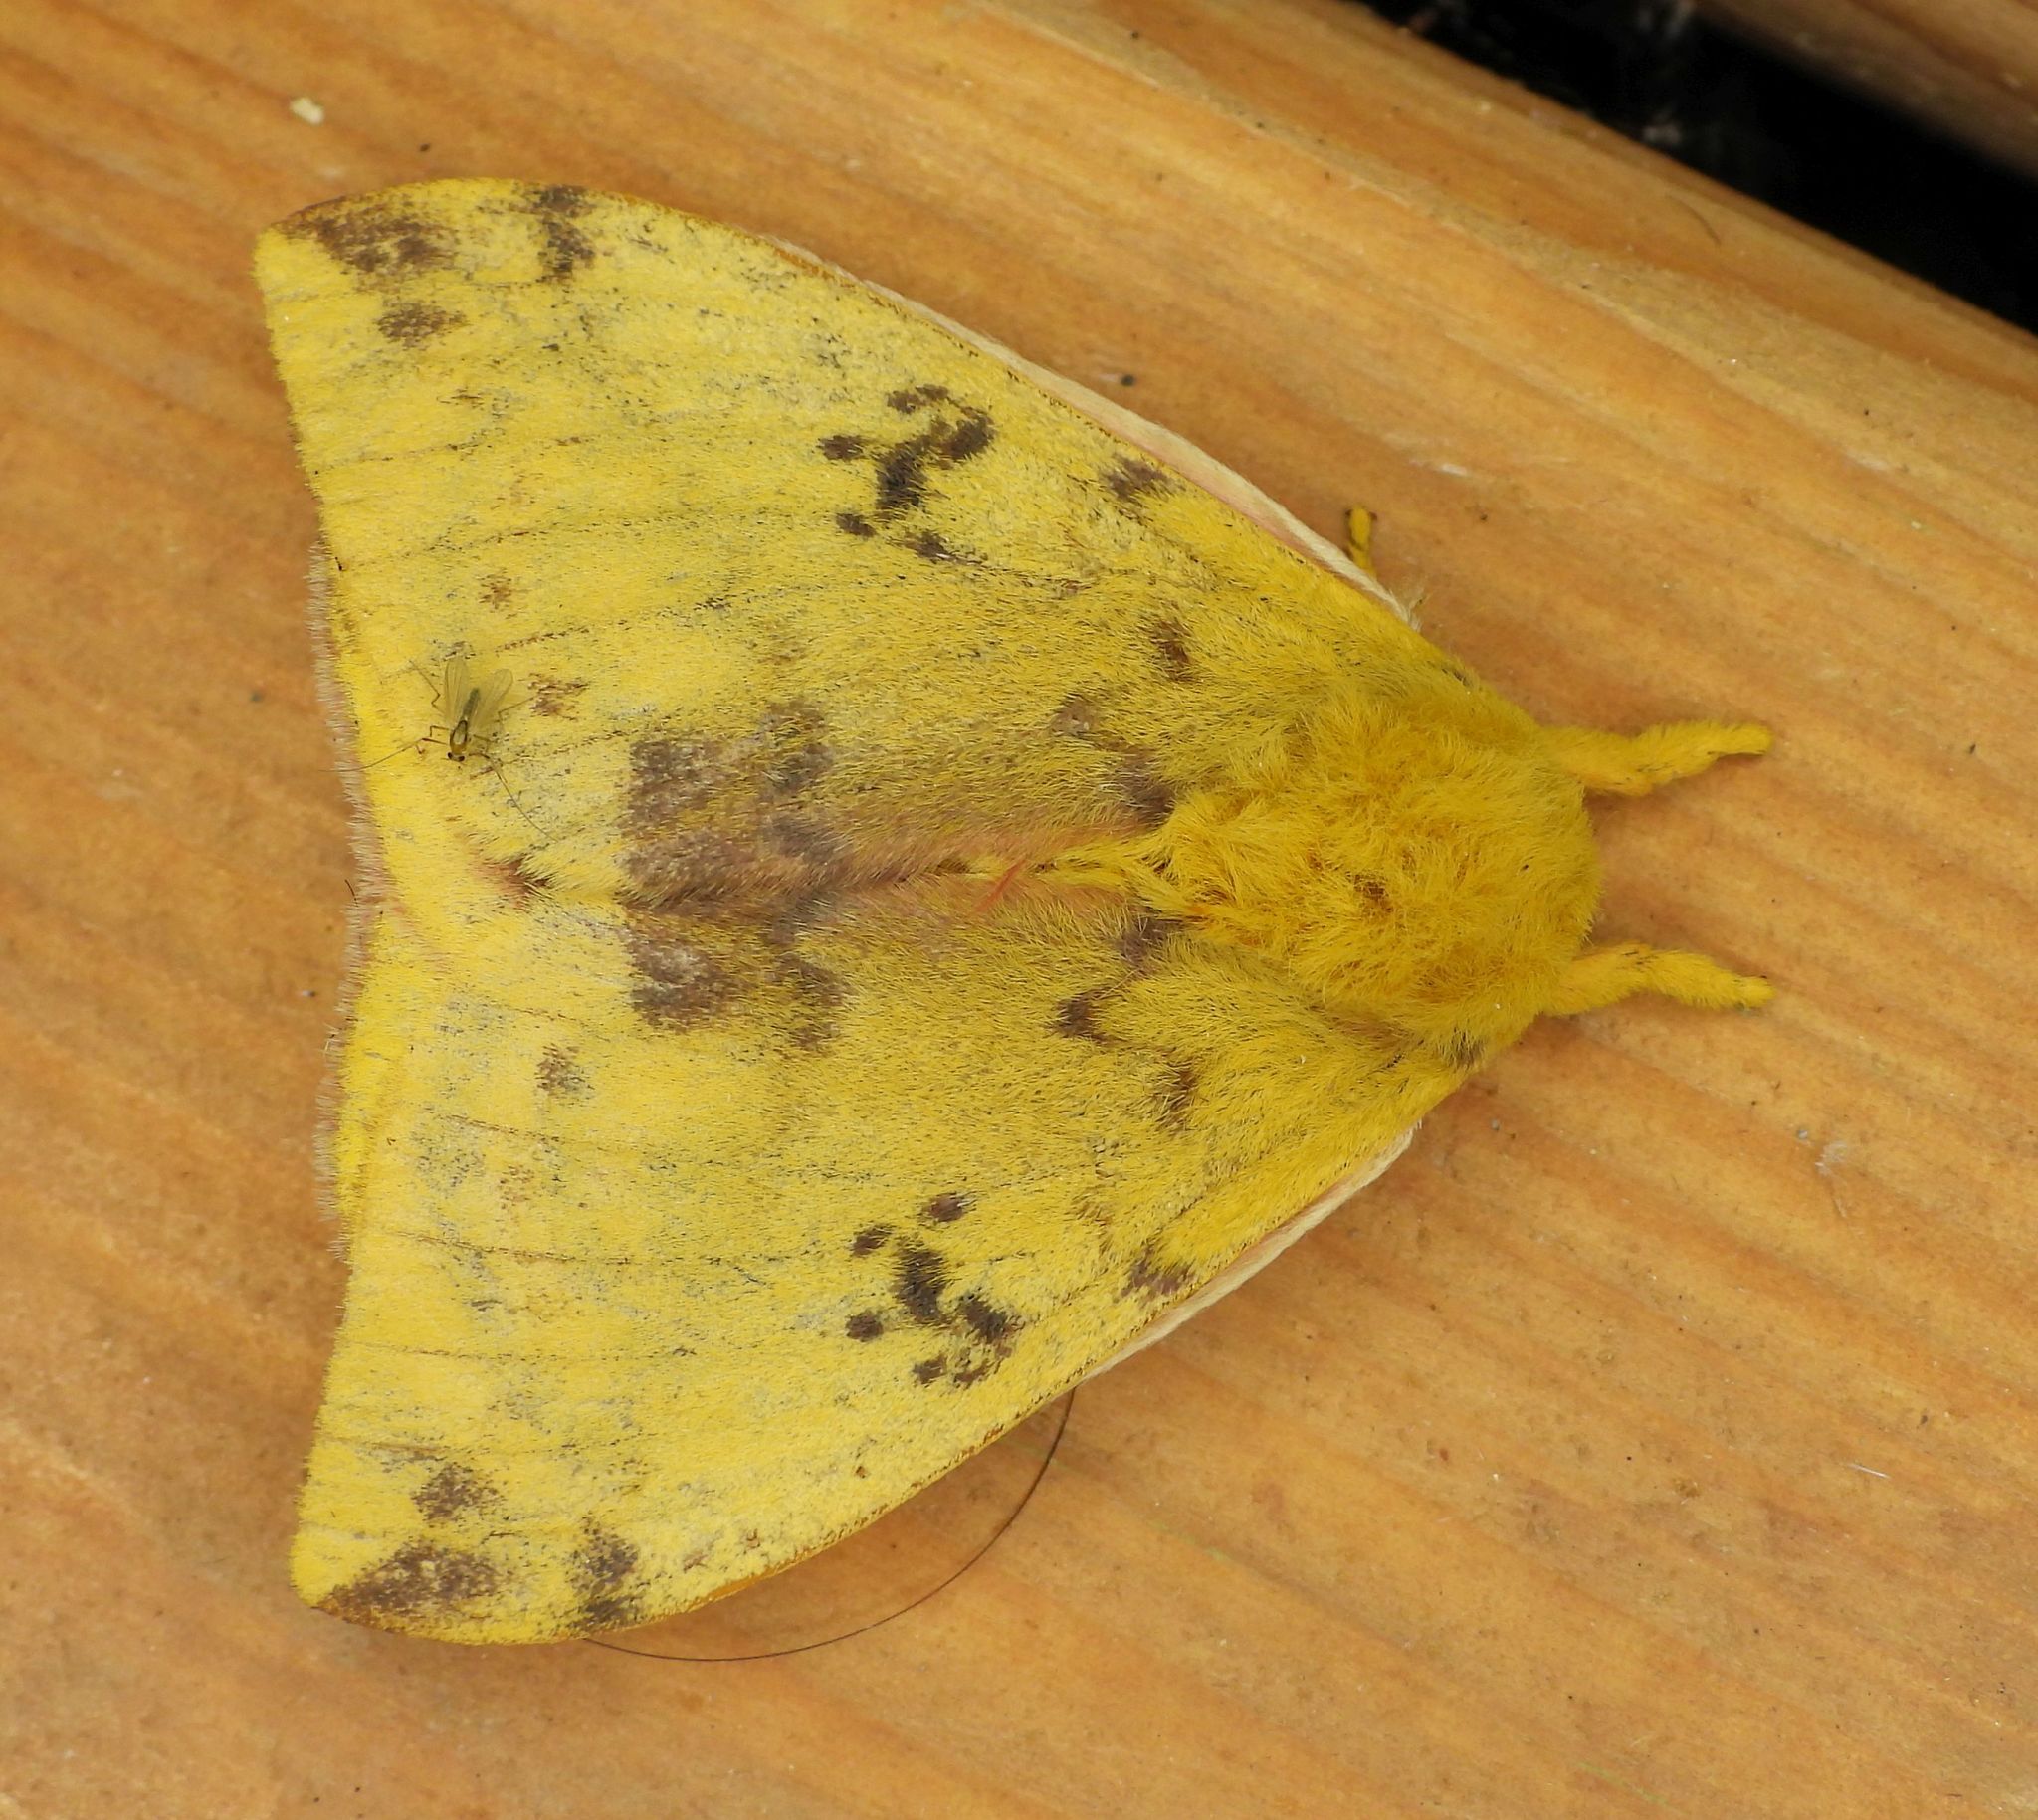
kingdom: Animalia
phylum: Arthropoda
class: Insecta
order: Lepidoptera
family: Saturniidae
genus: Automeris
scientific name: Automeris io
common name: Io moth
